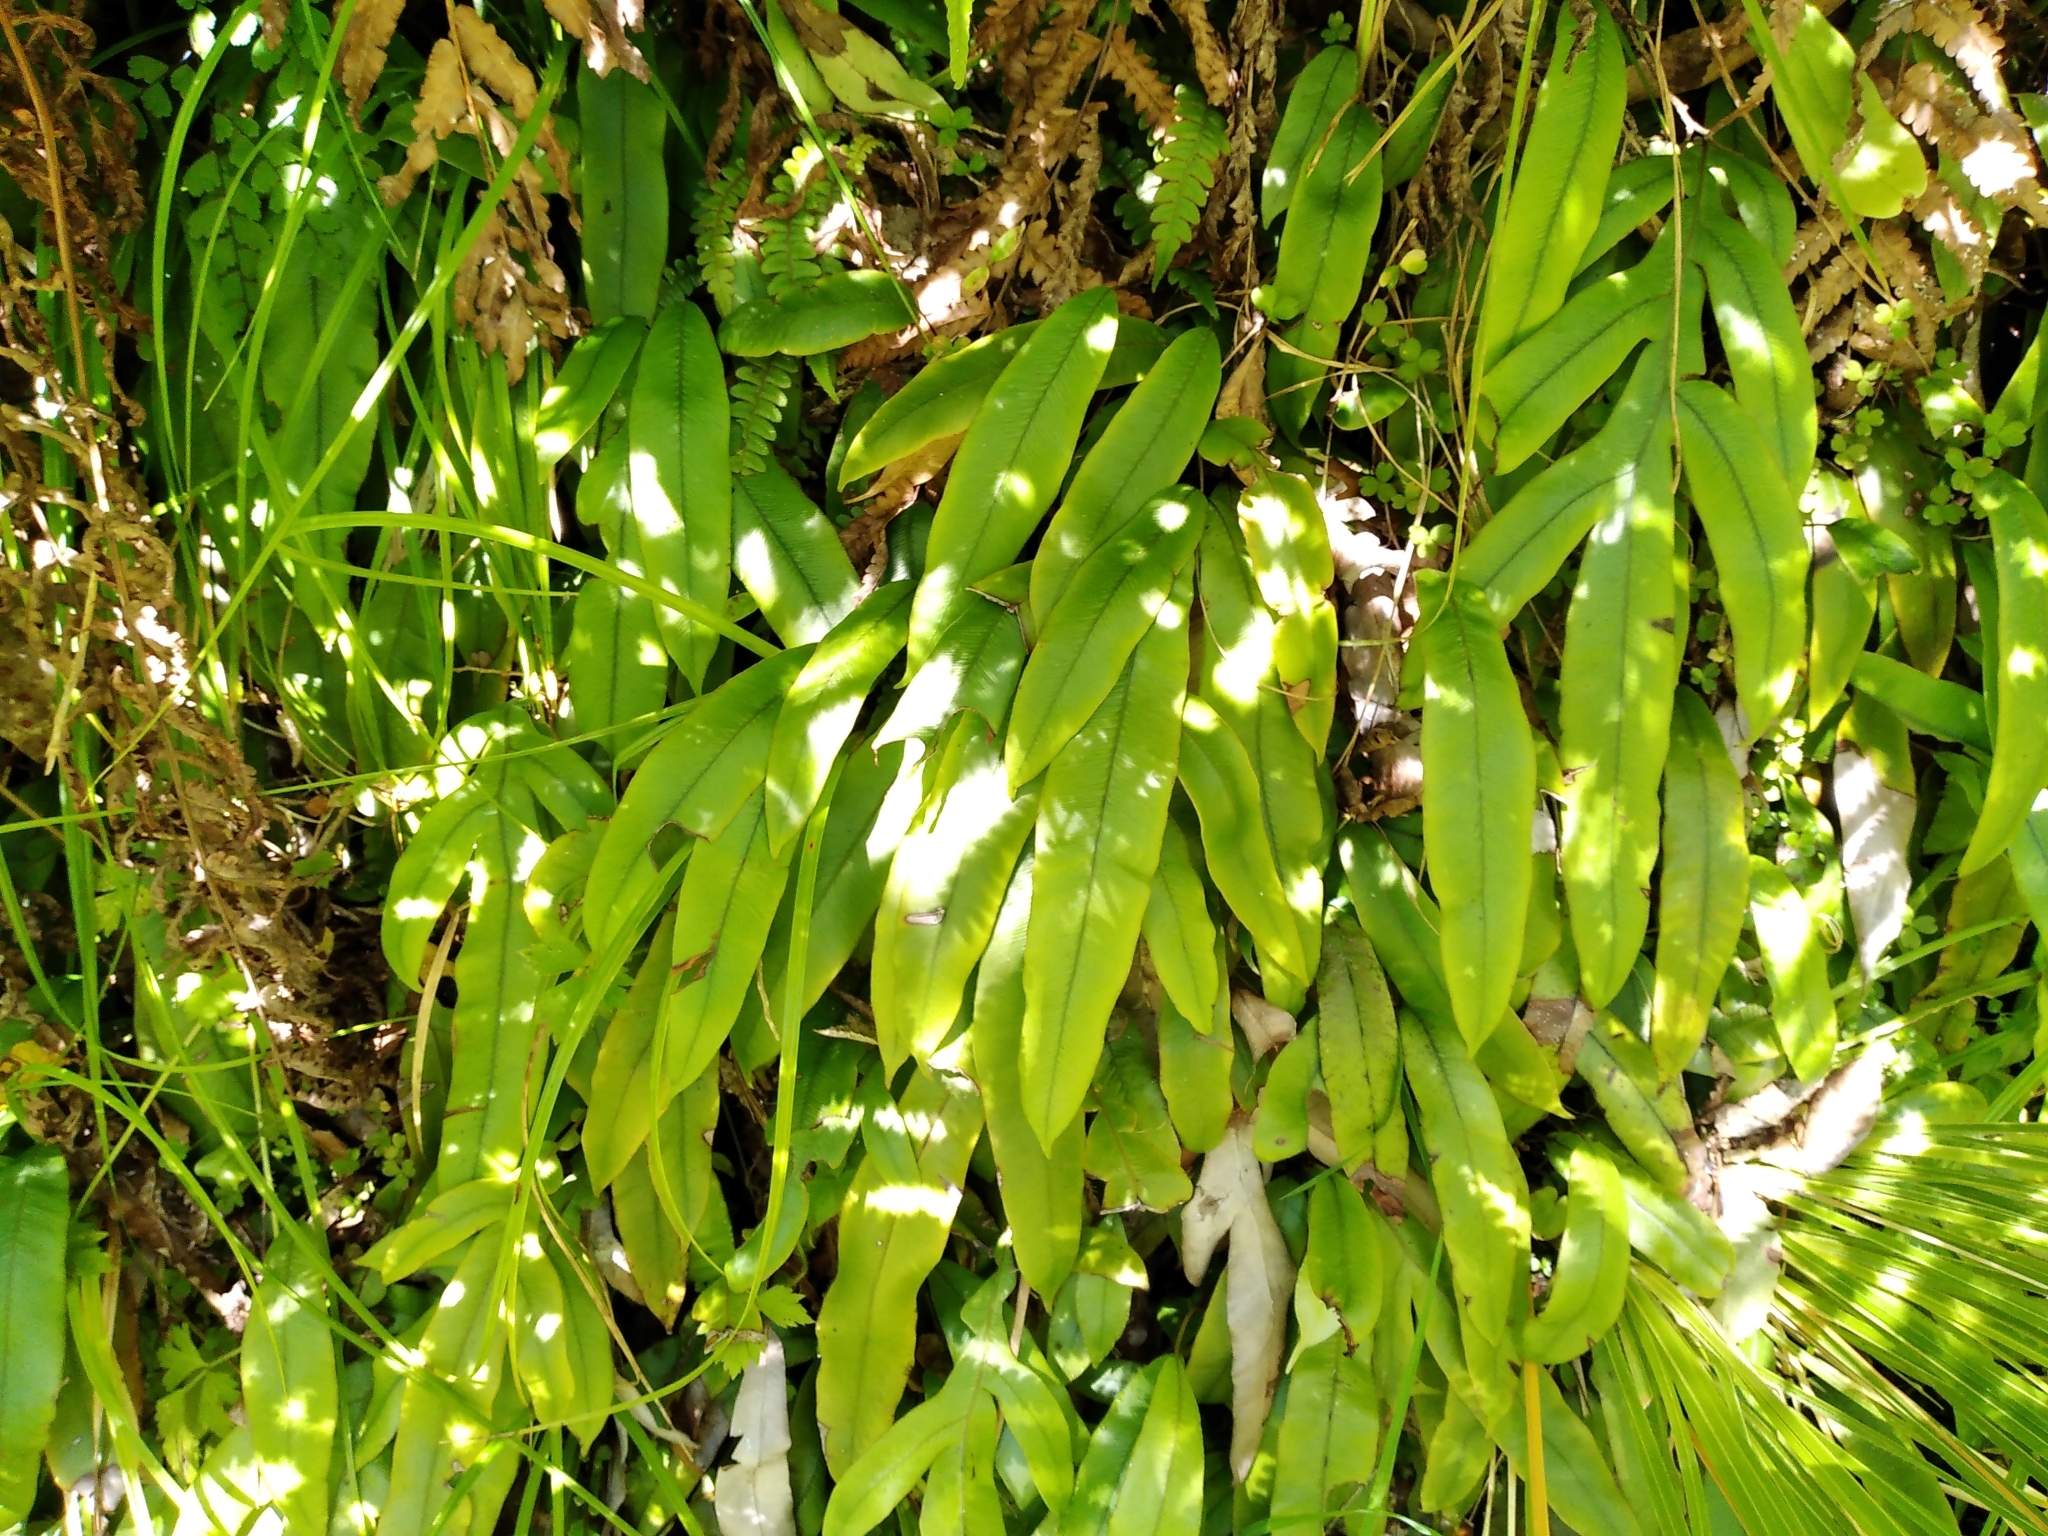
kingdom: Plantae
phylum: Tracheophyta
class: Polypodiopsida
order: Polypodiales
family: Blechnaceae
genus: Austroblechnum
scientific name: Austroblechnum colensoi
